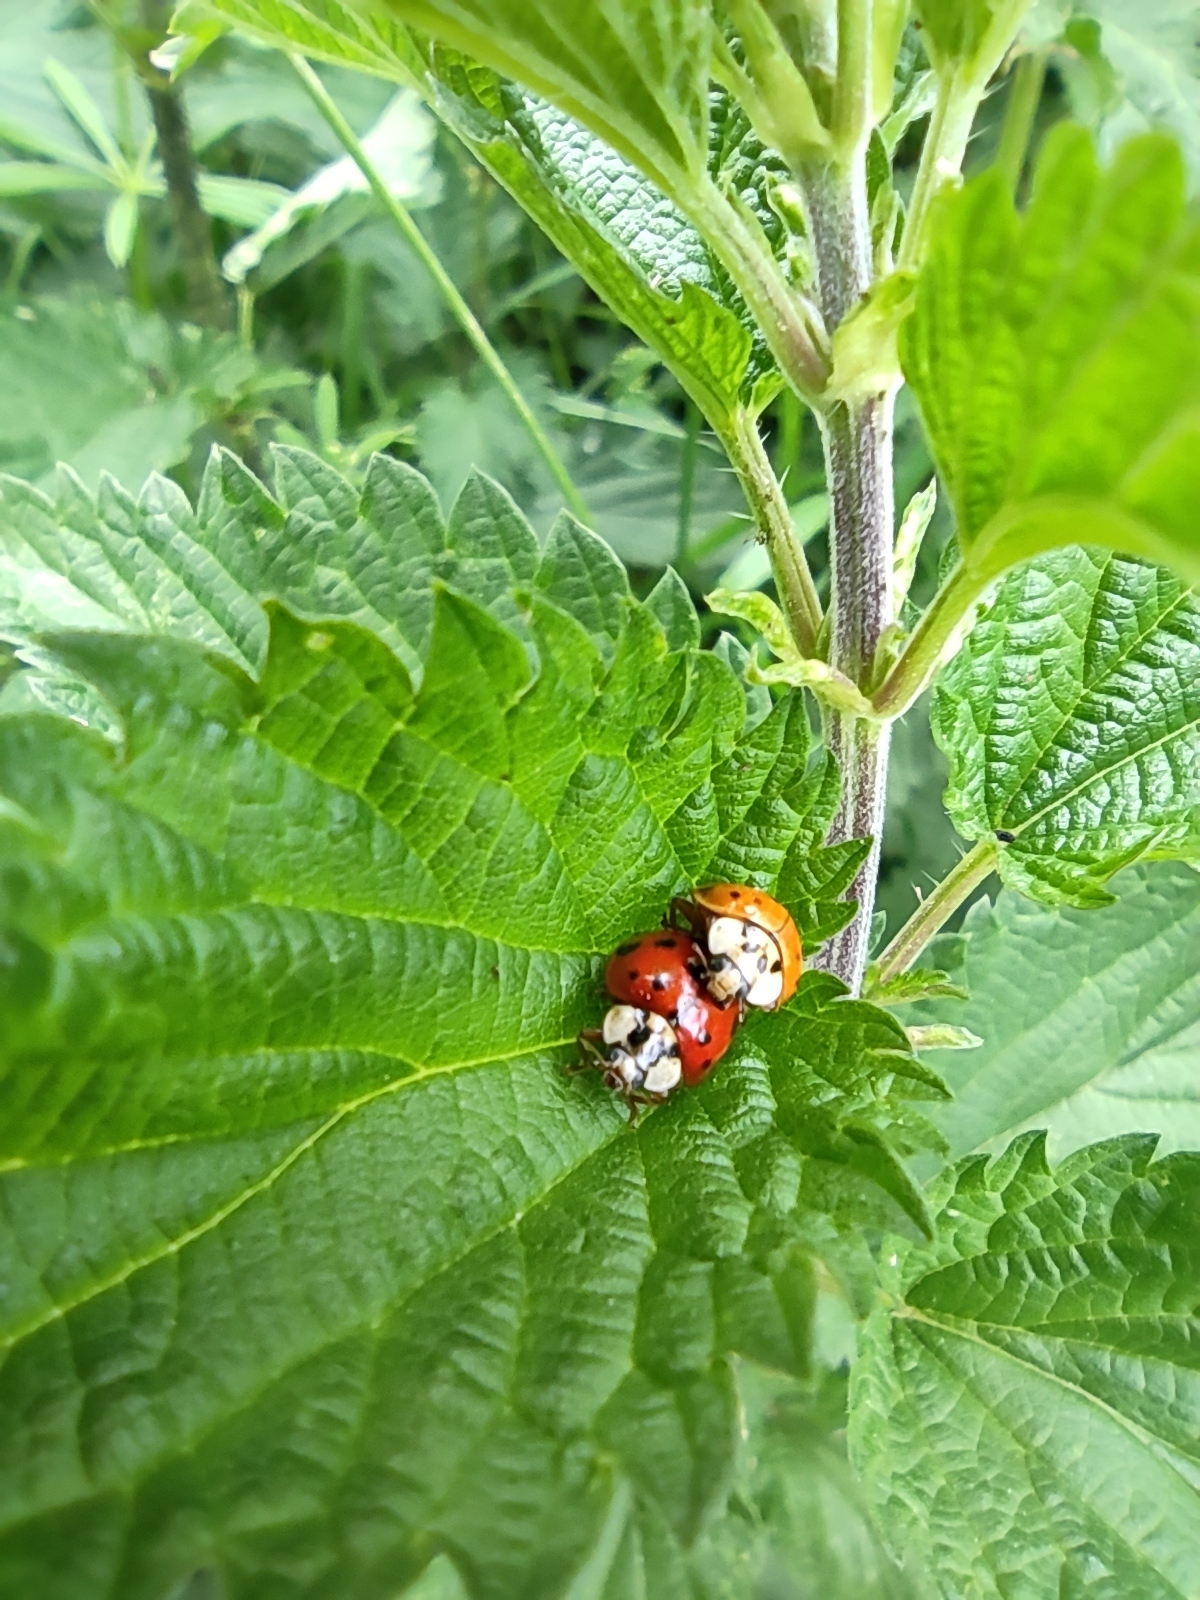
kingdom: Animalia
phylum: Arthropoda
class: Insecta
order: Coleoptera
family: Coccinellidae
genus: Harmonia
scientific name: Harmonia axyridis
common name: Harlequin ladybird
